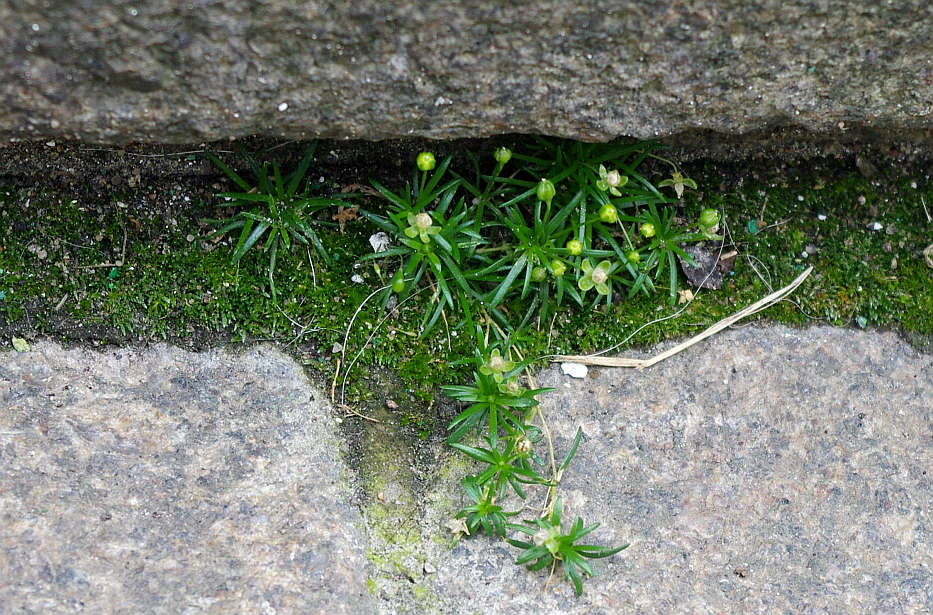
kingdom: Plantae
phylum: Tracheophyta
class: Magnoliopsida
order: Caryophyllales
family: Caryophyllaceae
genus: Sagina
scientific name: Sagina procumbens
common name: Procumbent pearlwort
